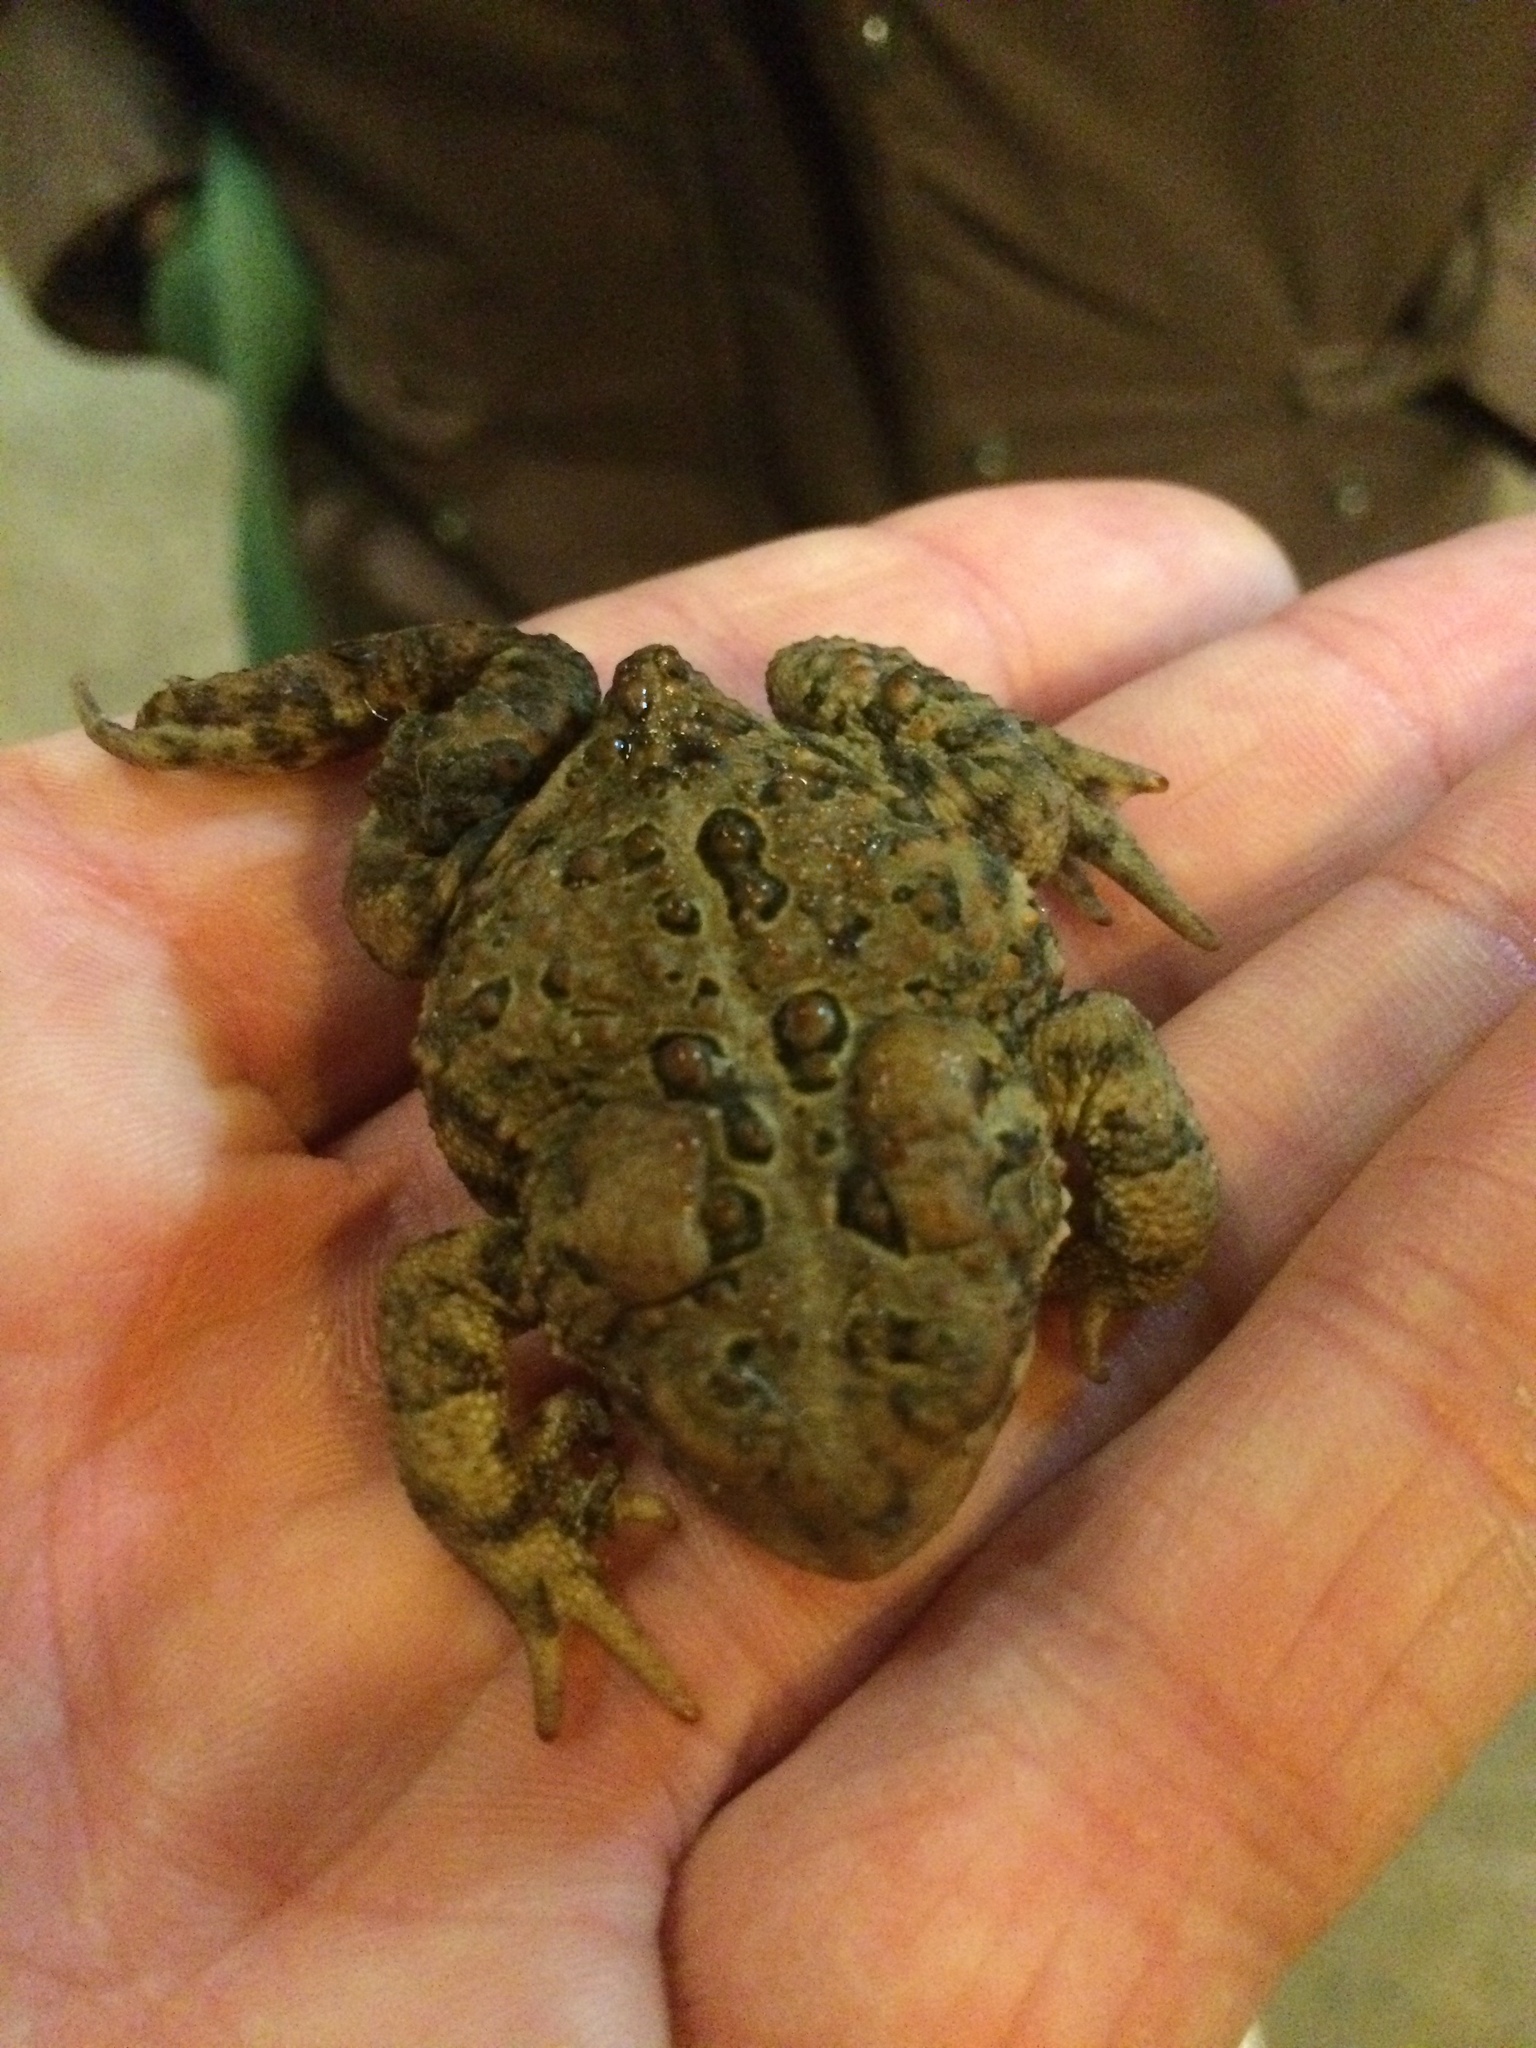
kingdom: Animalia
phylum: Chordata
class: Amphibia
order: Anura
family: Bufonidae
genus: Anaxyrus
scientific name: Anaxyrus americanus
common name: American toad
